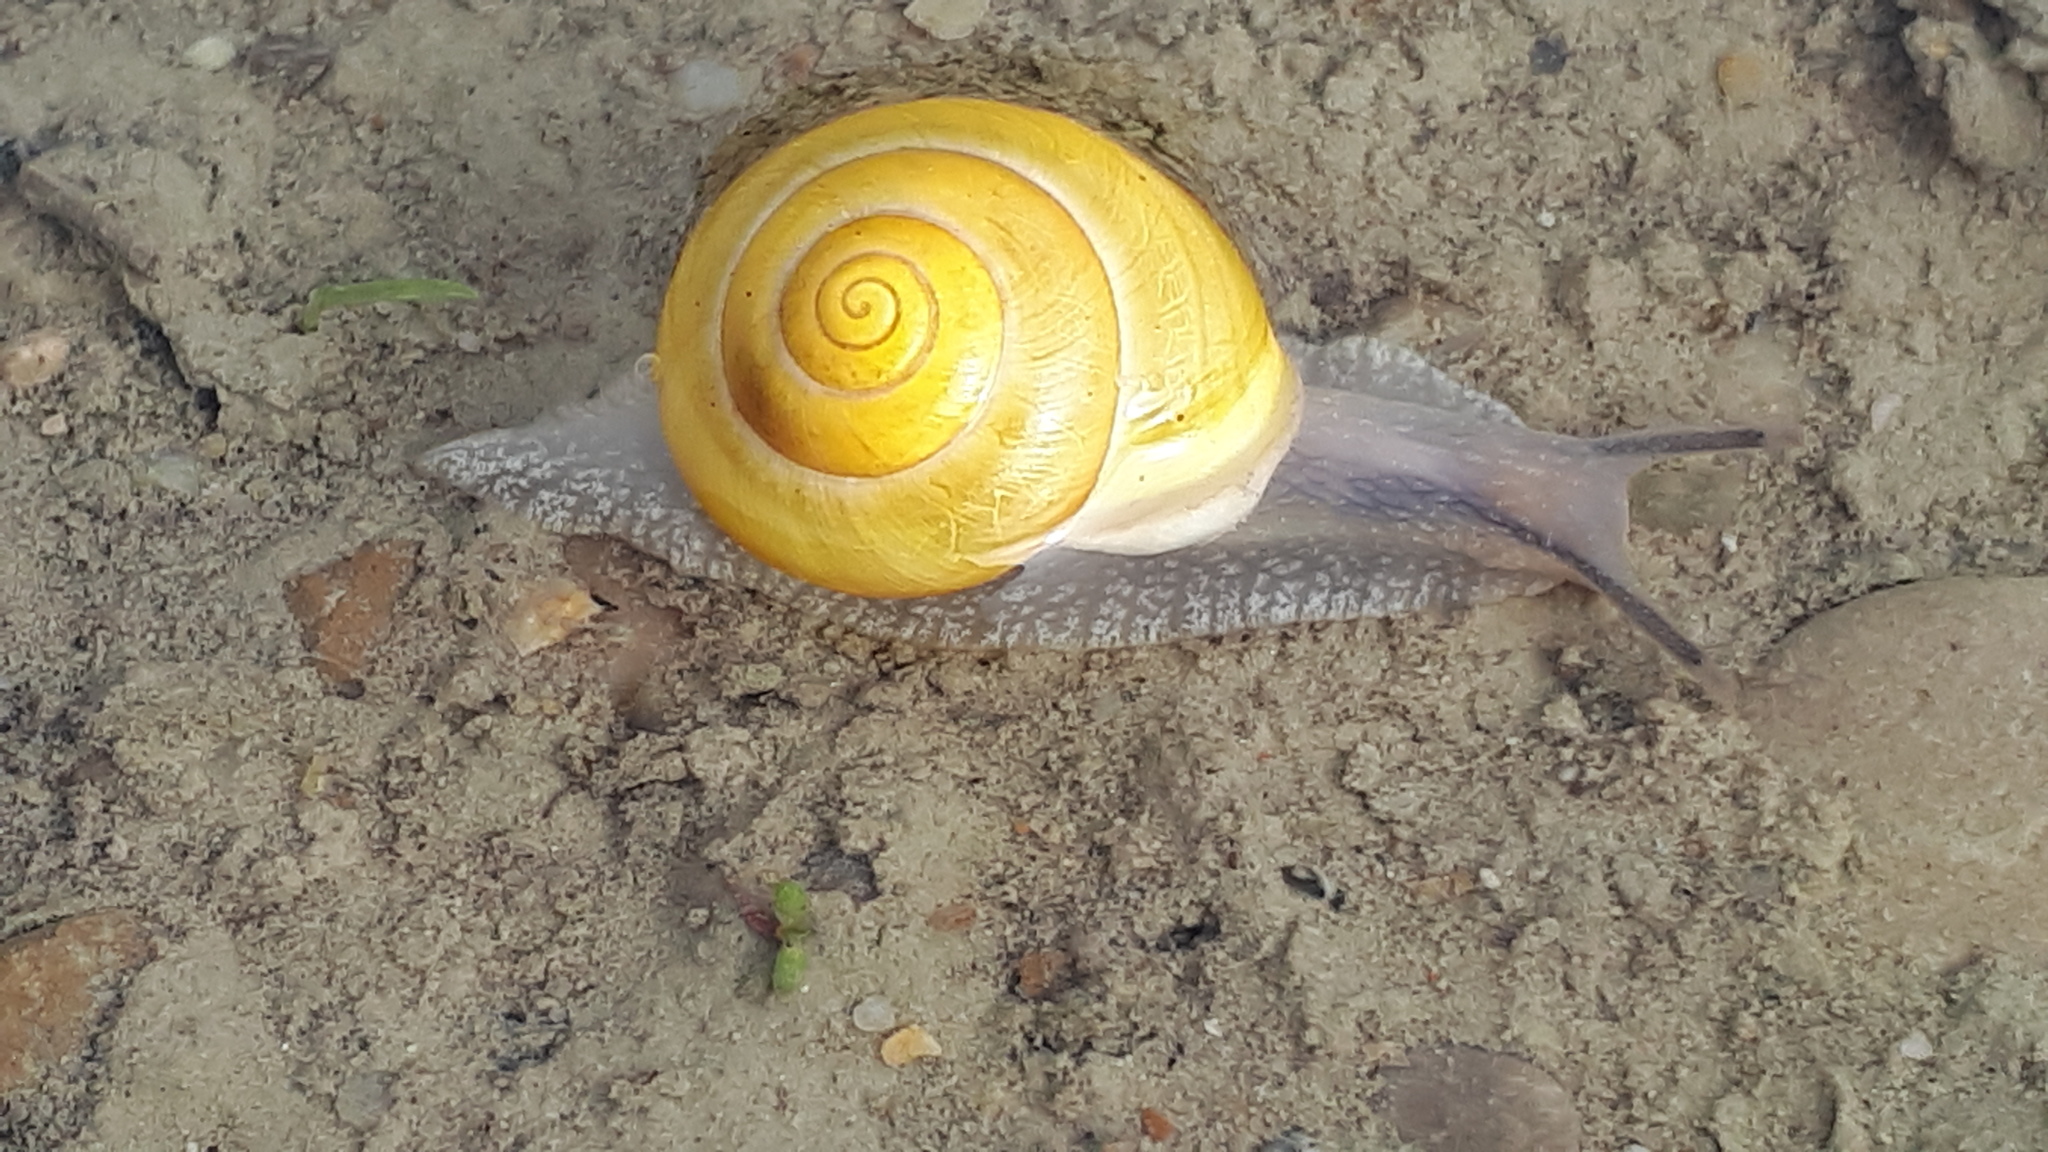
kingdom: Animalia
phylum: Mollusca
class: Gastropoda
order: Stylommatophora
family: Helicidae
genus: Cepaea
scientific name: Cepaea hortensis
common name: White-lip gardensnail
